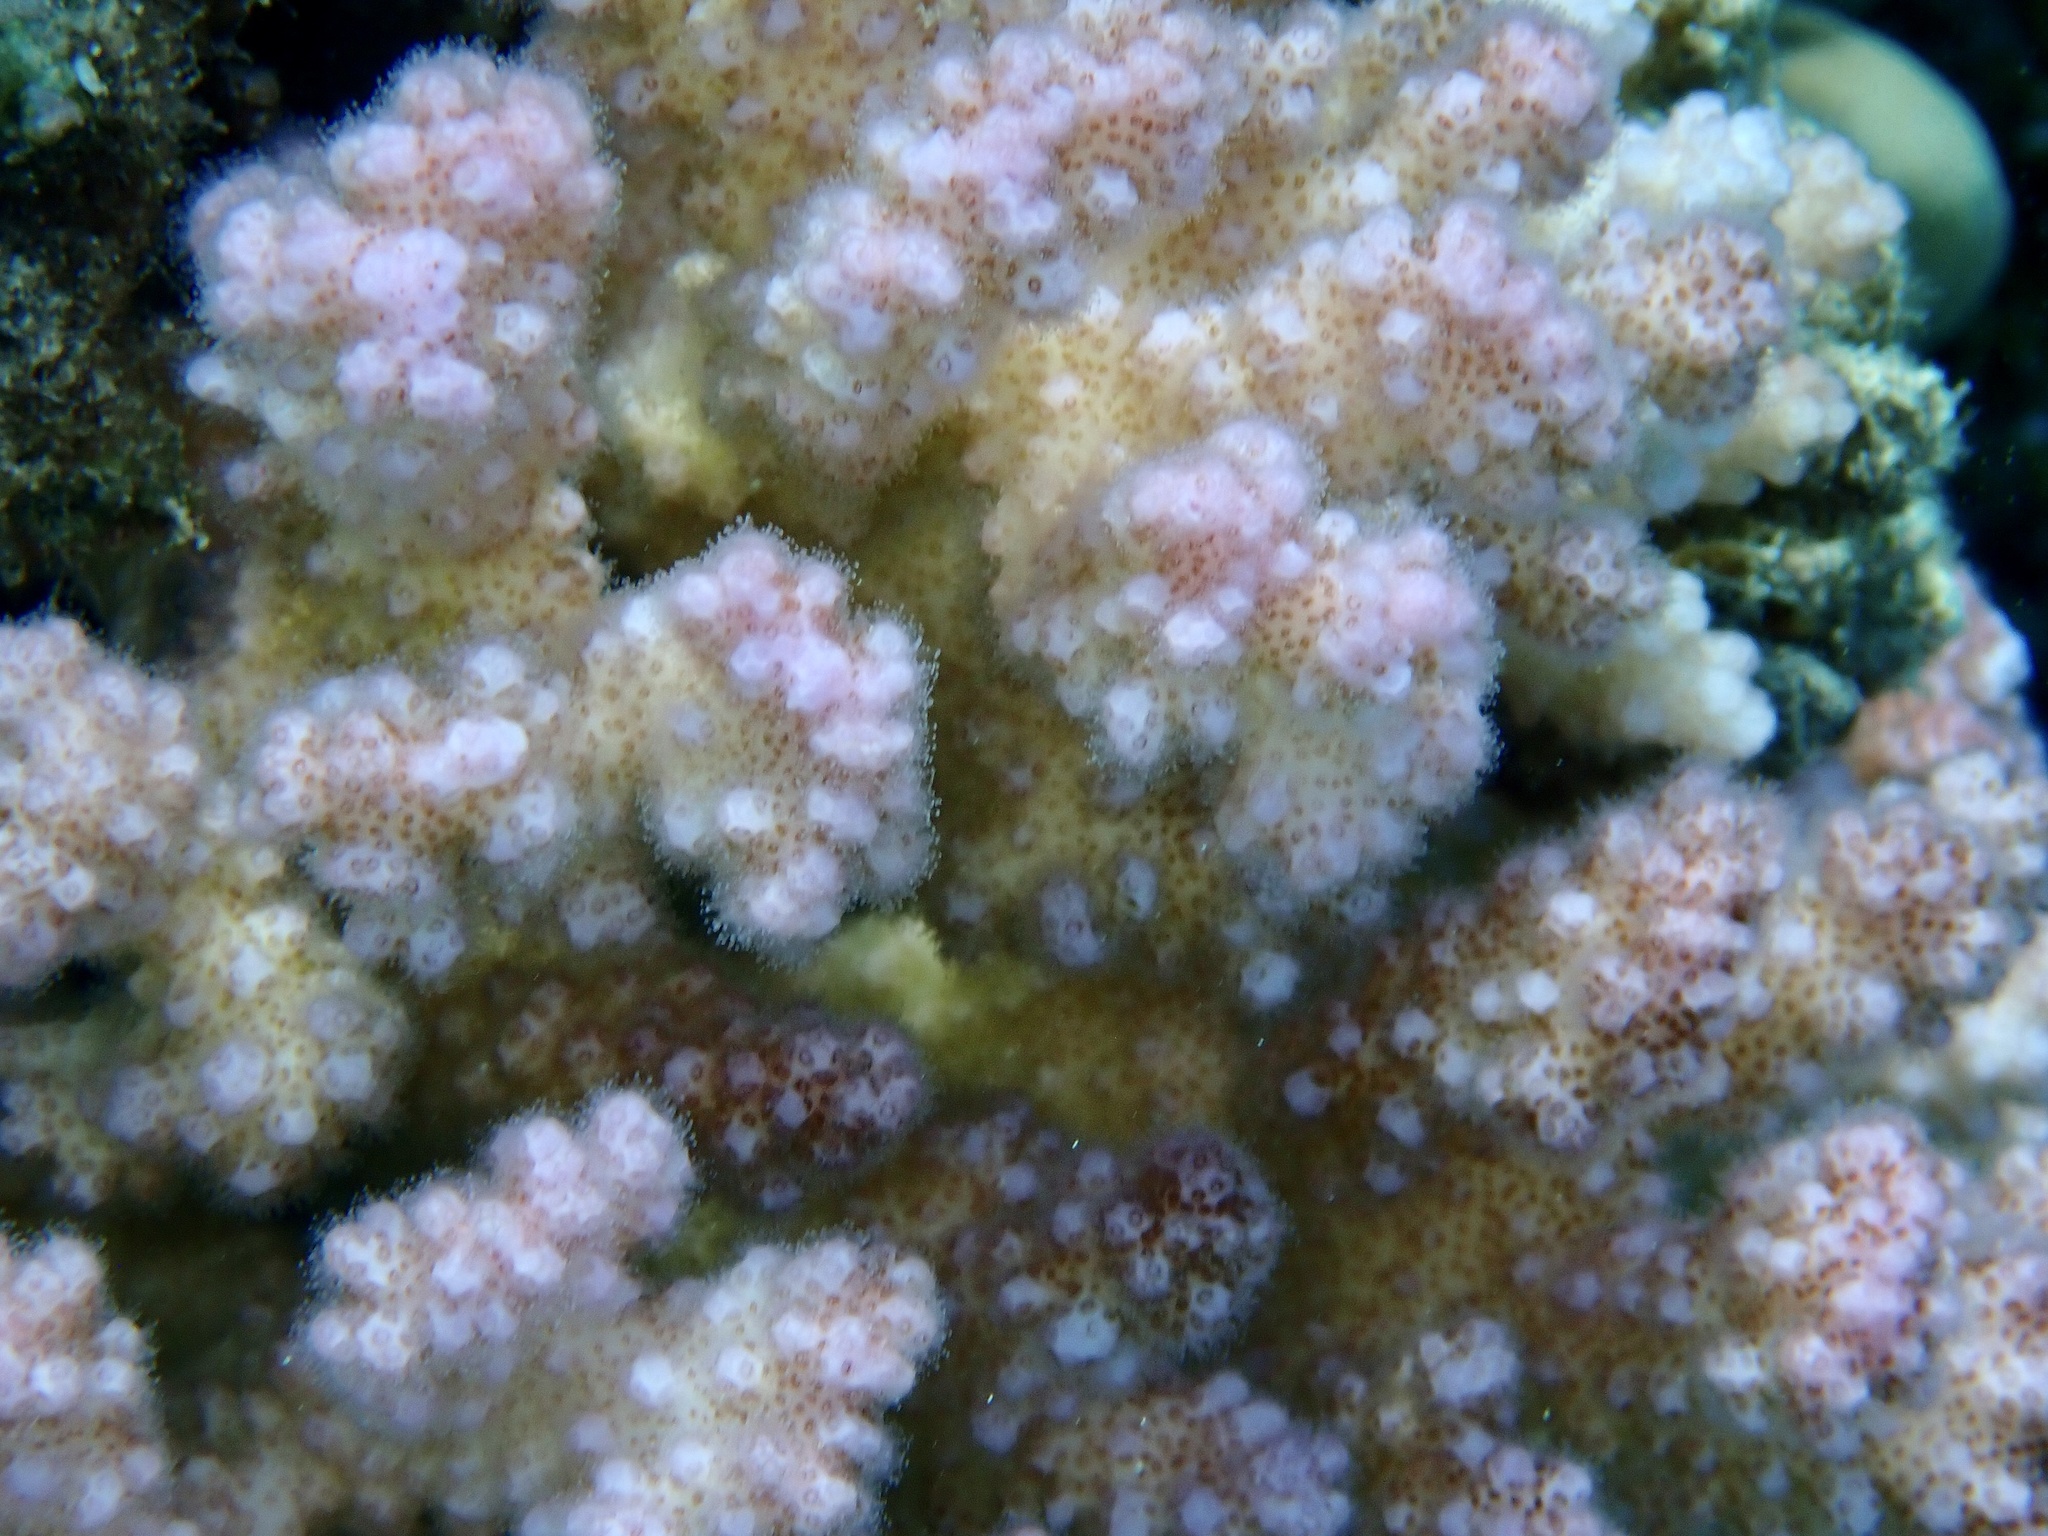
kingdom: Animalia
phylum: Cnidaria
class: Anthozoa
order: Scleractinia
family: Pocilloporidae
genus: Pocillopora
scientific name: Pocillopora verrucosa
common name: Cauliflower coral
